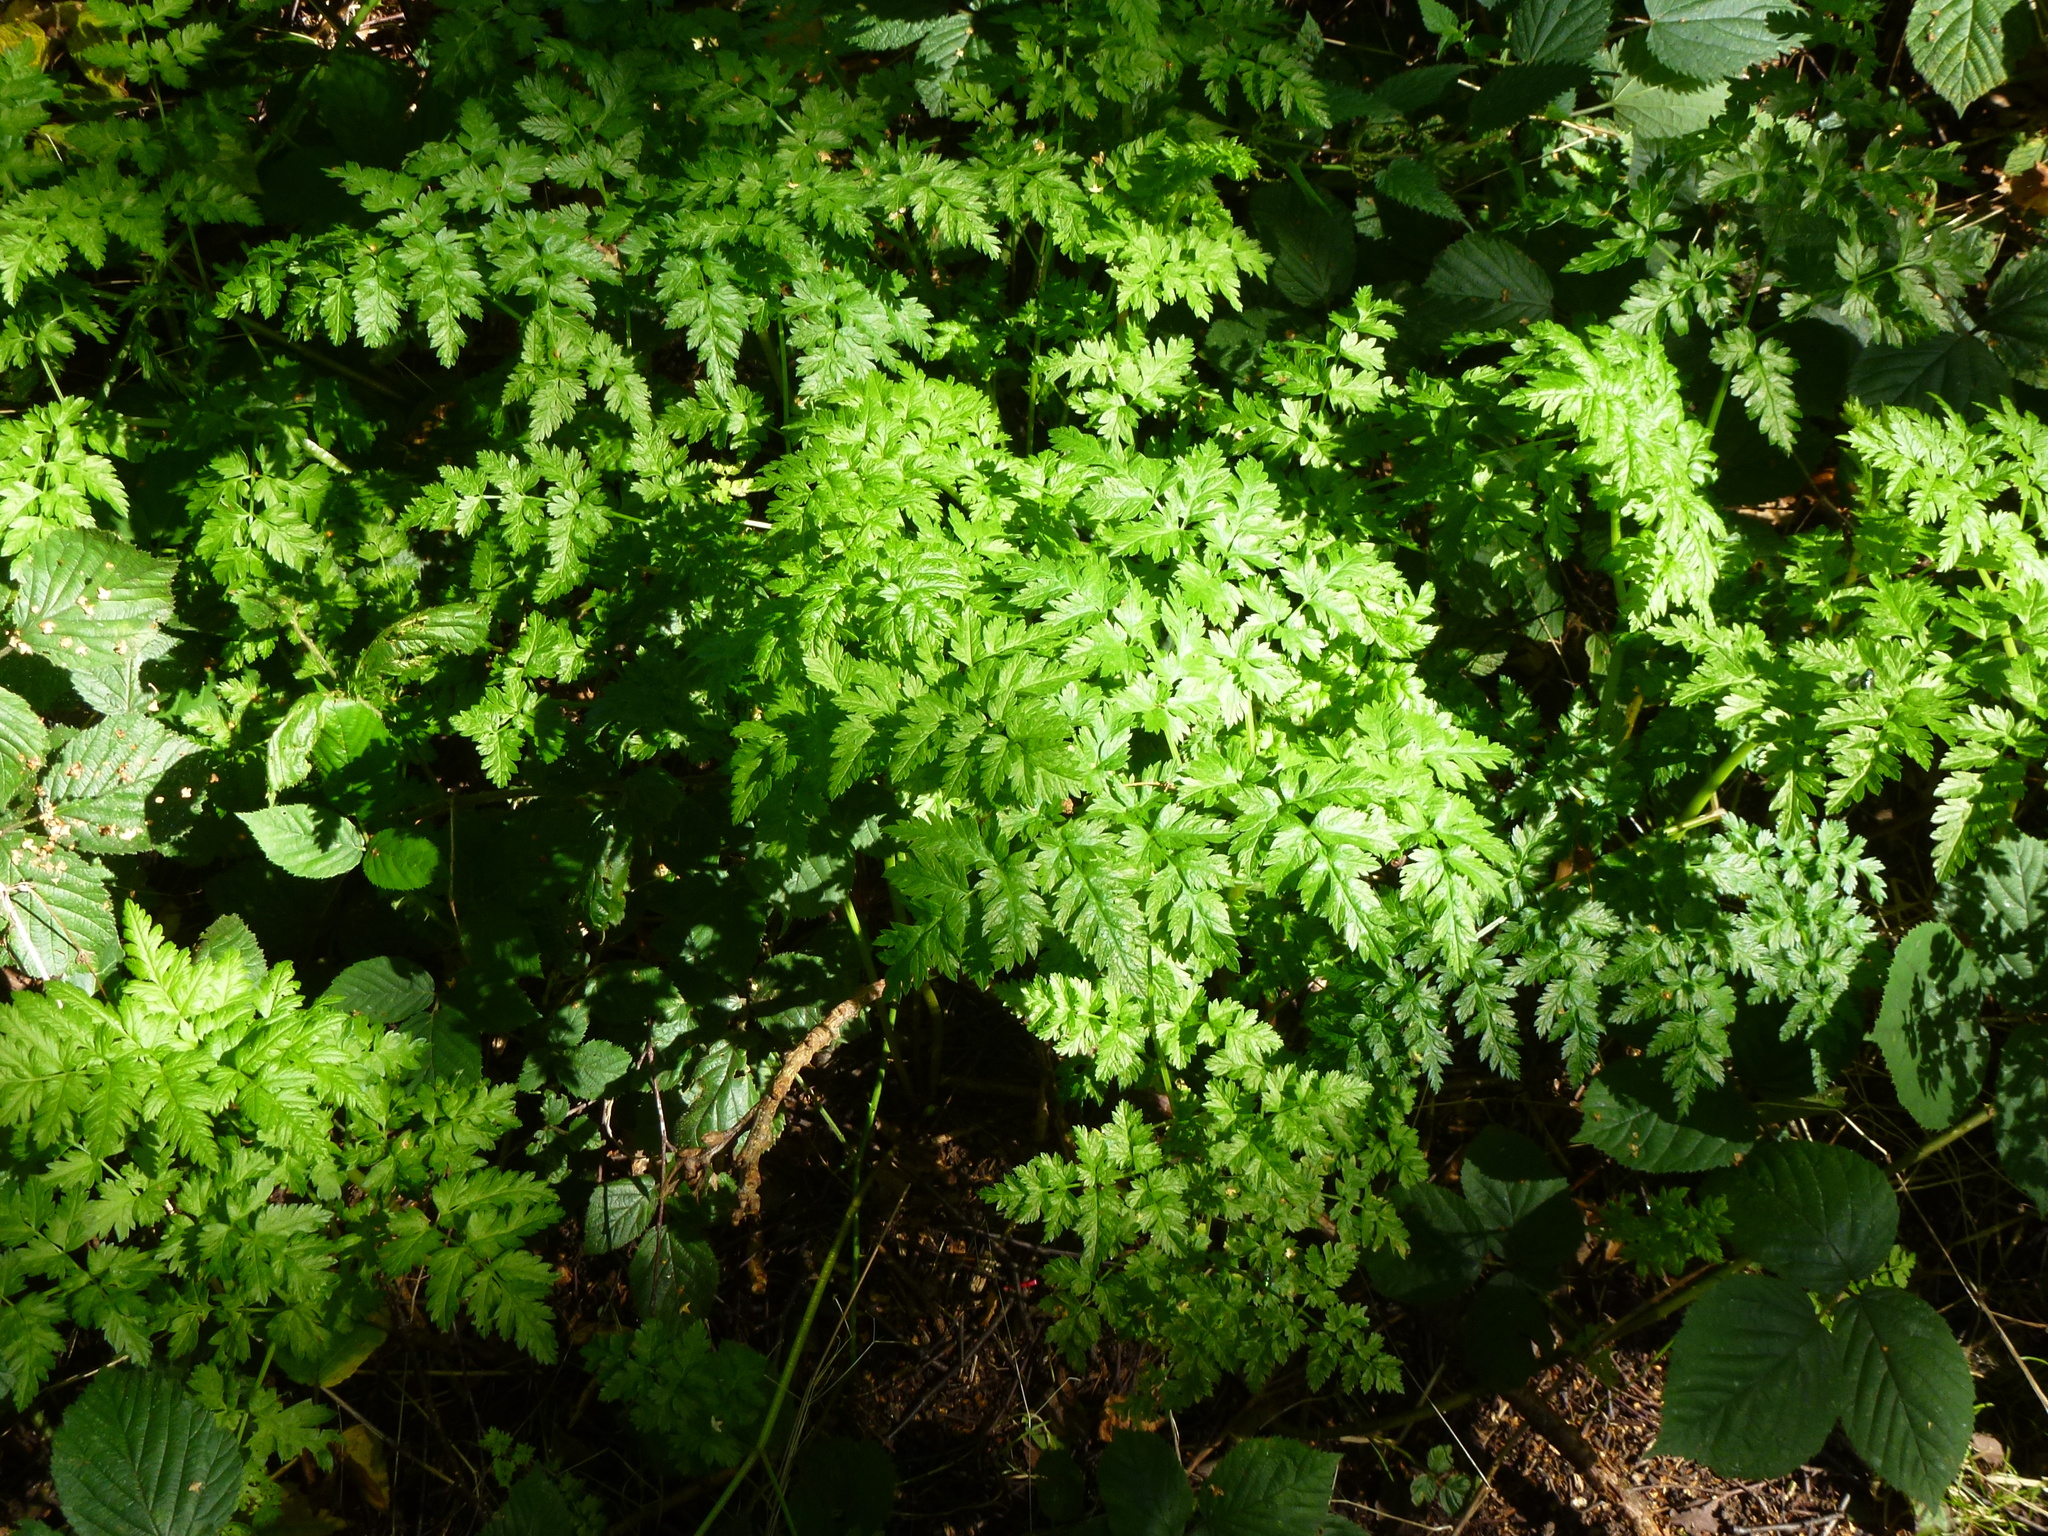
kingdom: Plantae
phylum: Tracheophyta
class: Magnoliopsida
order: Apiales
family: Apiaceae
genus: Anthriscus
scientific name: Anthriscus sylvestris
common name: Cow parsley
